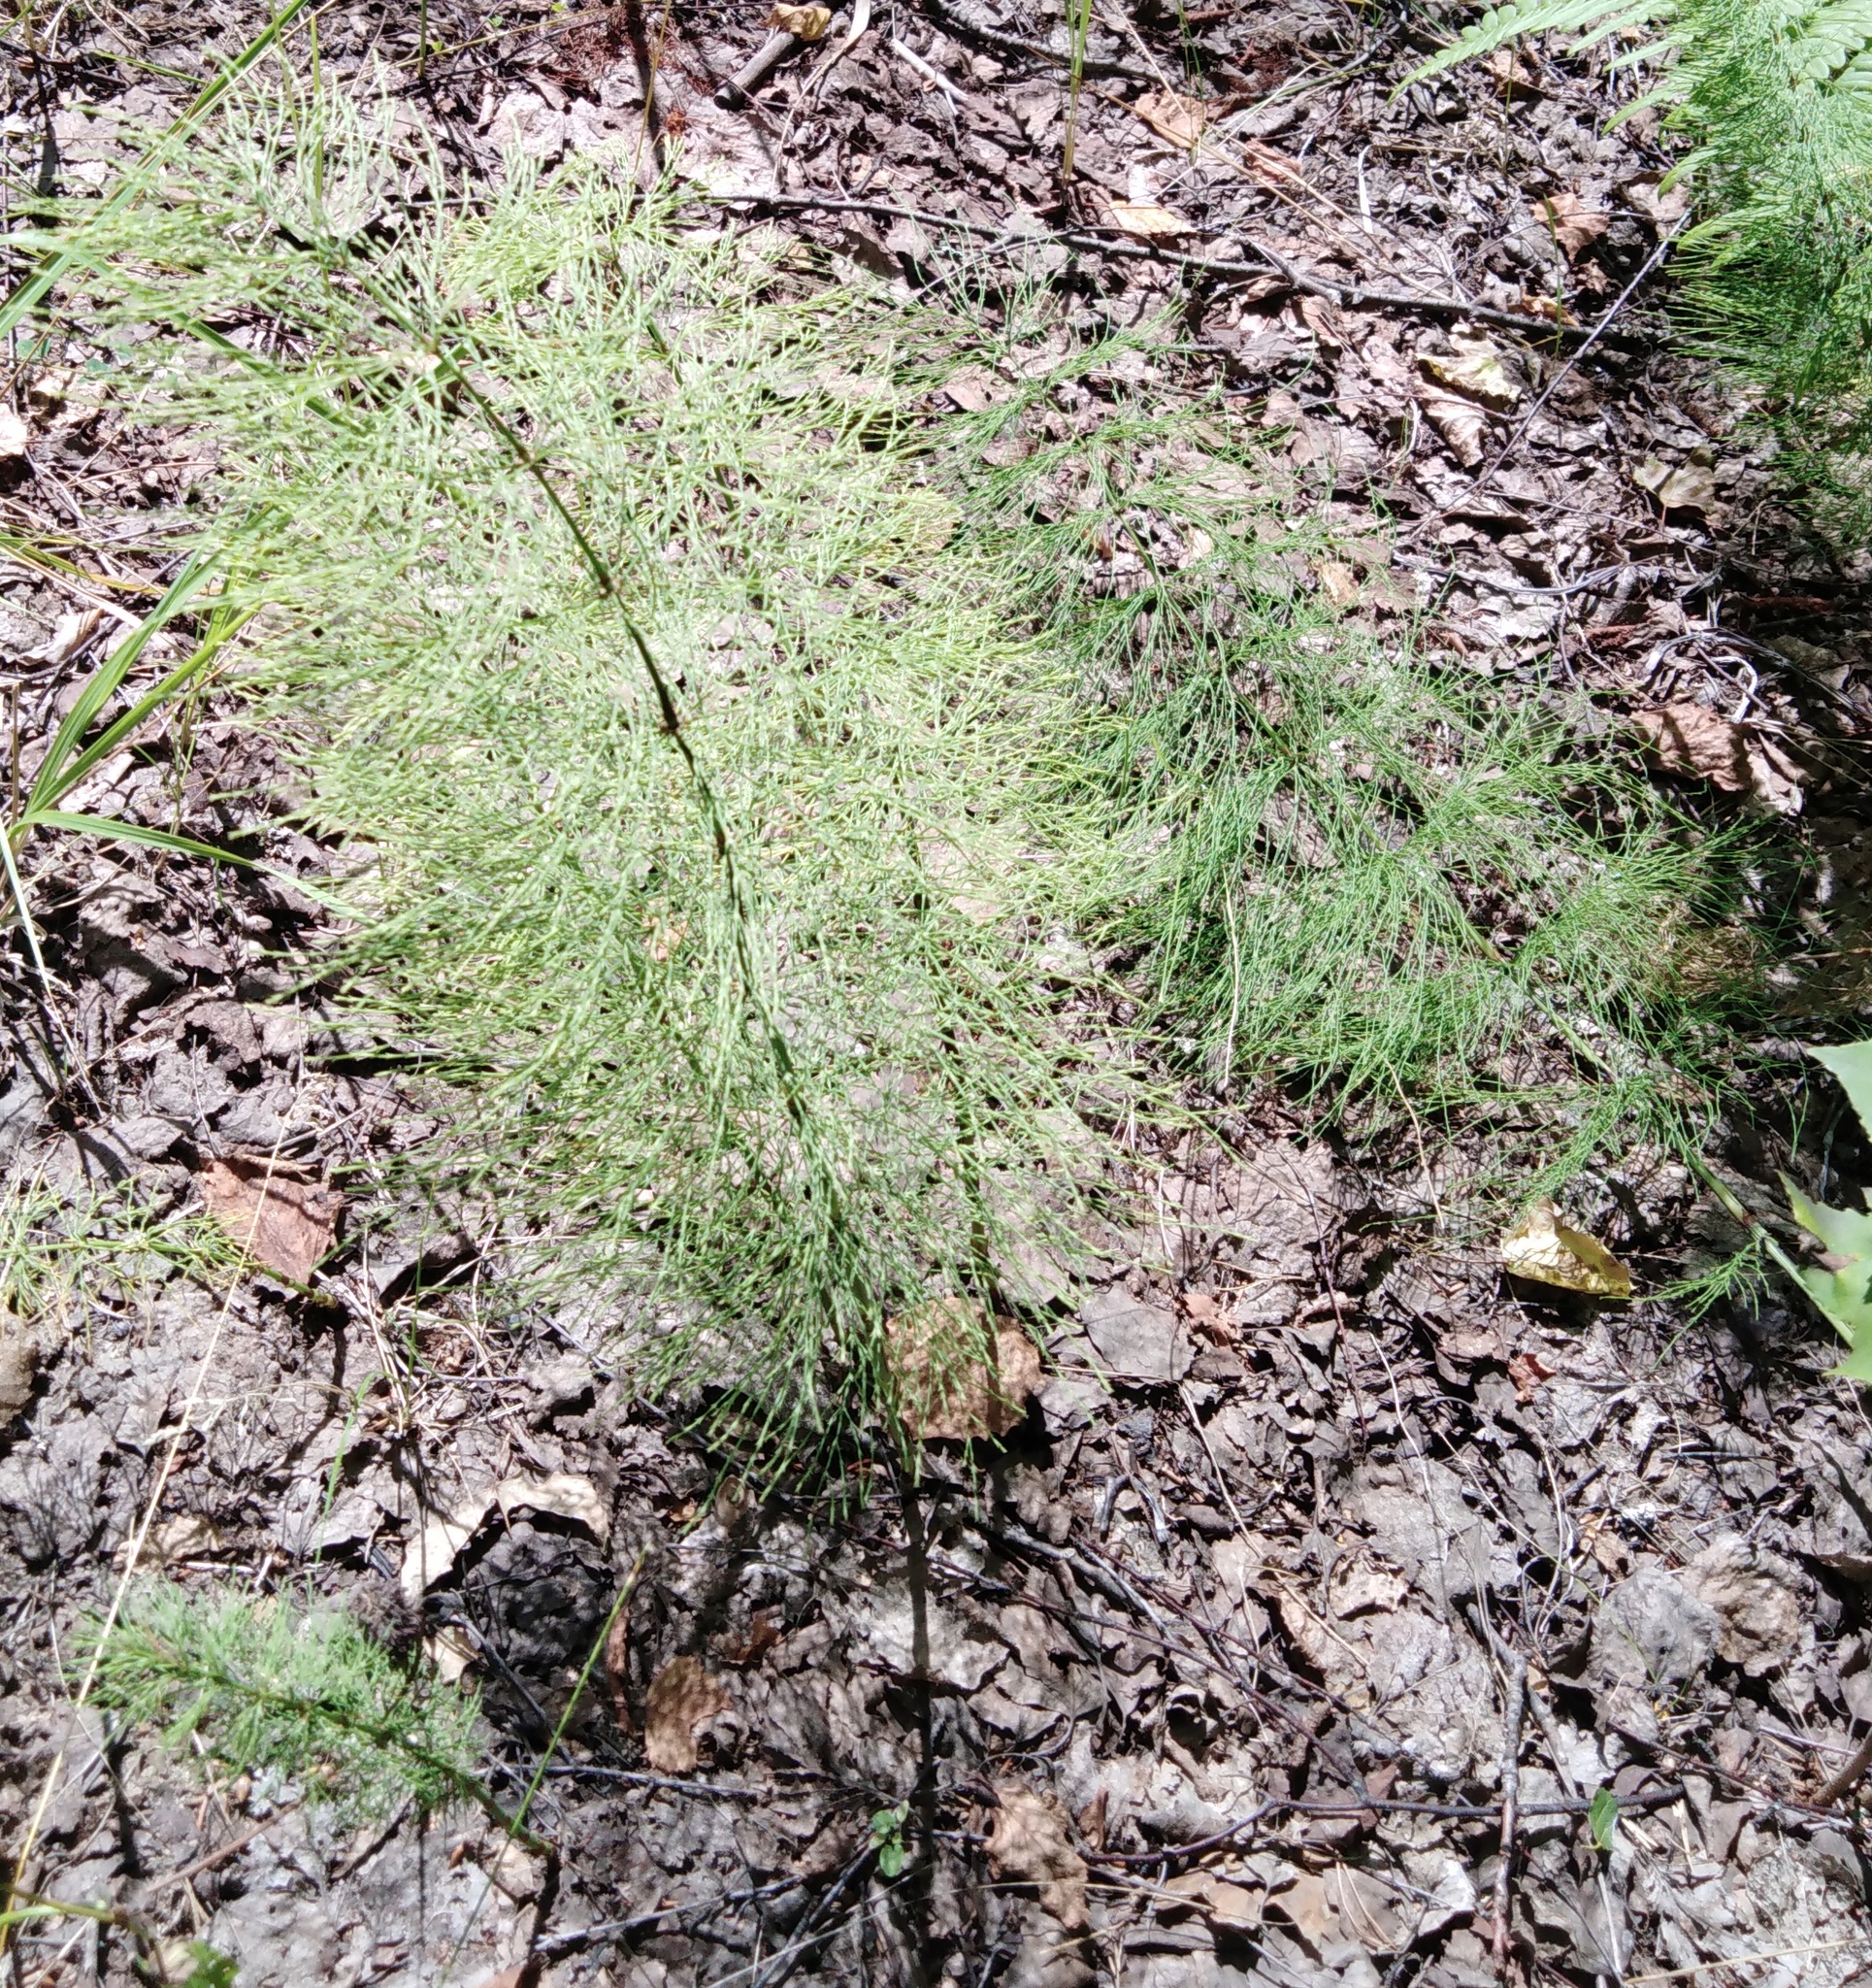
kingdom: Plantae
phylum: Tracheophyta
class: Polypodiopsida
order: Equisetales
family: Equisetaceae
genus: Equisetum
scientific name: Equisetum sylvaticum
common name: Wood horsetail
